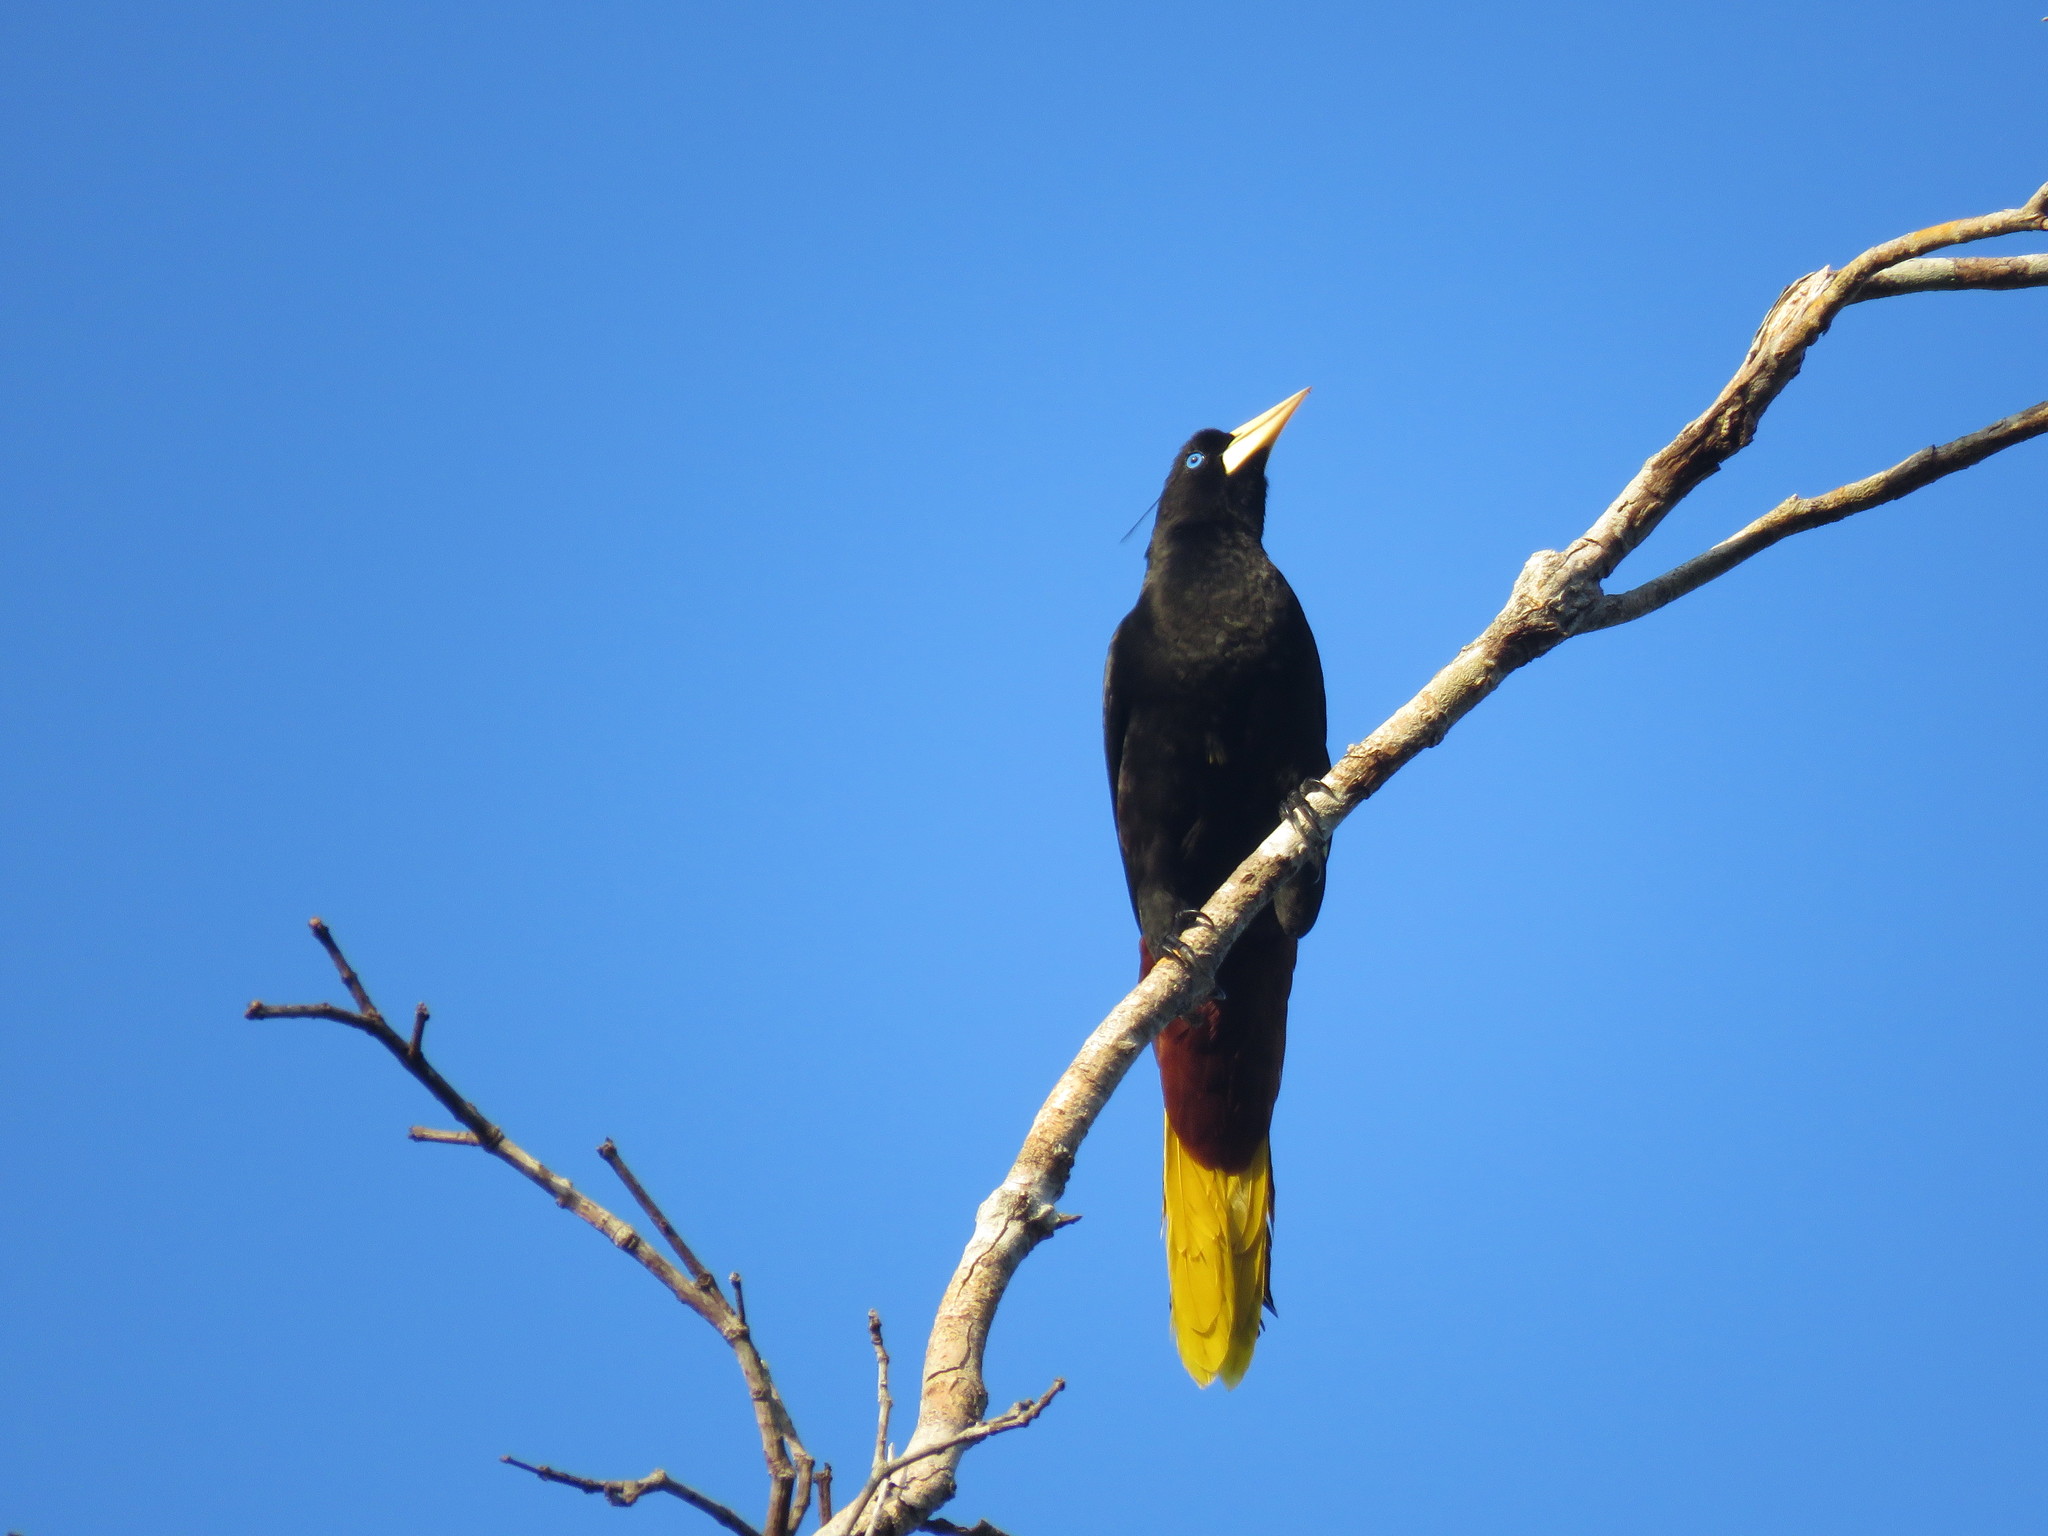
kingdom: Animalia
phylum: Chordata
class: Aves
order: Passeriformes
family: Icteridae
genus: Psarocolius
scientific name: Psarocolius decumanus
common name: Crested oropendola
